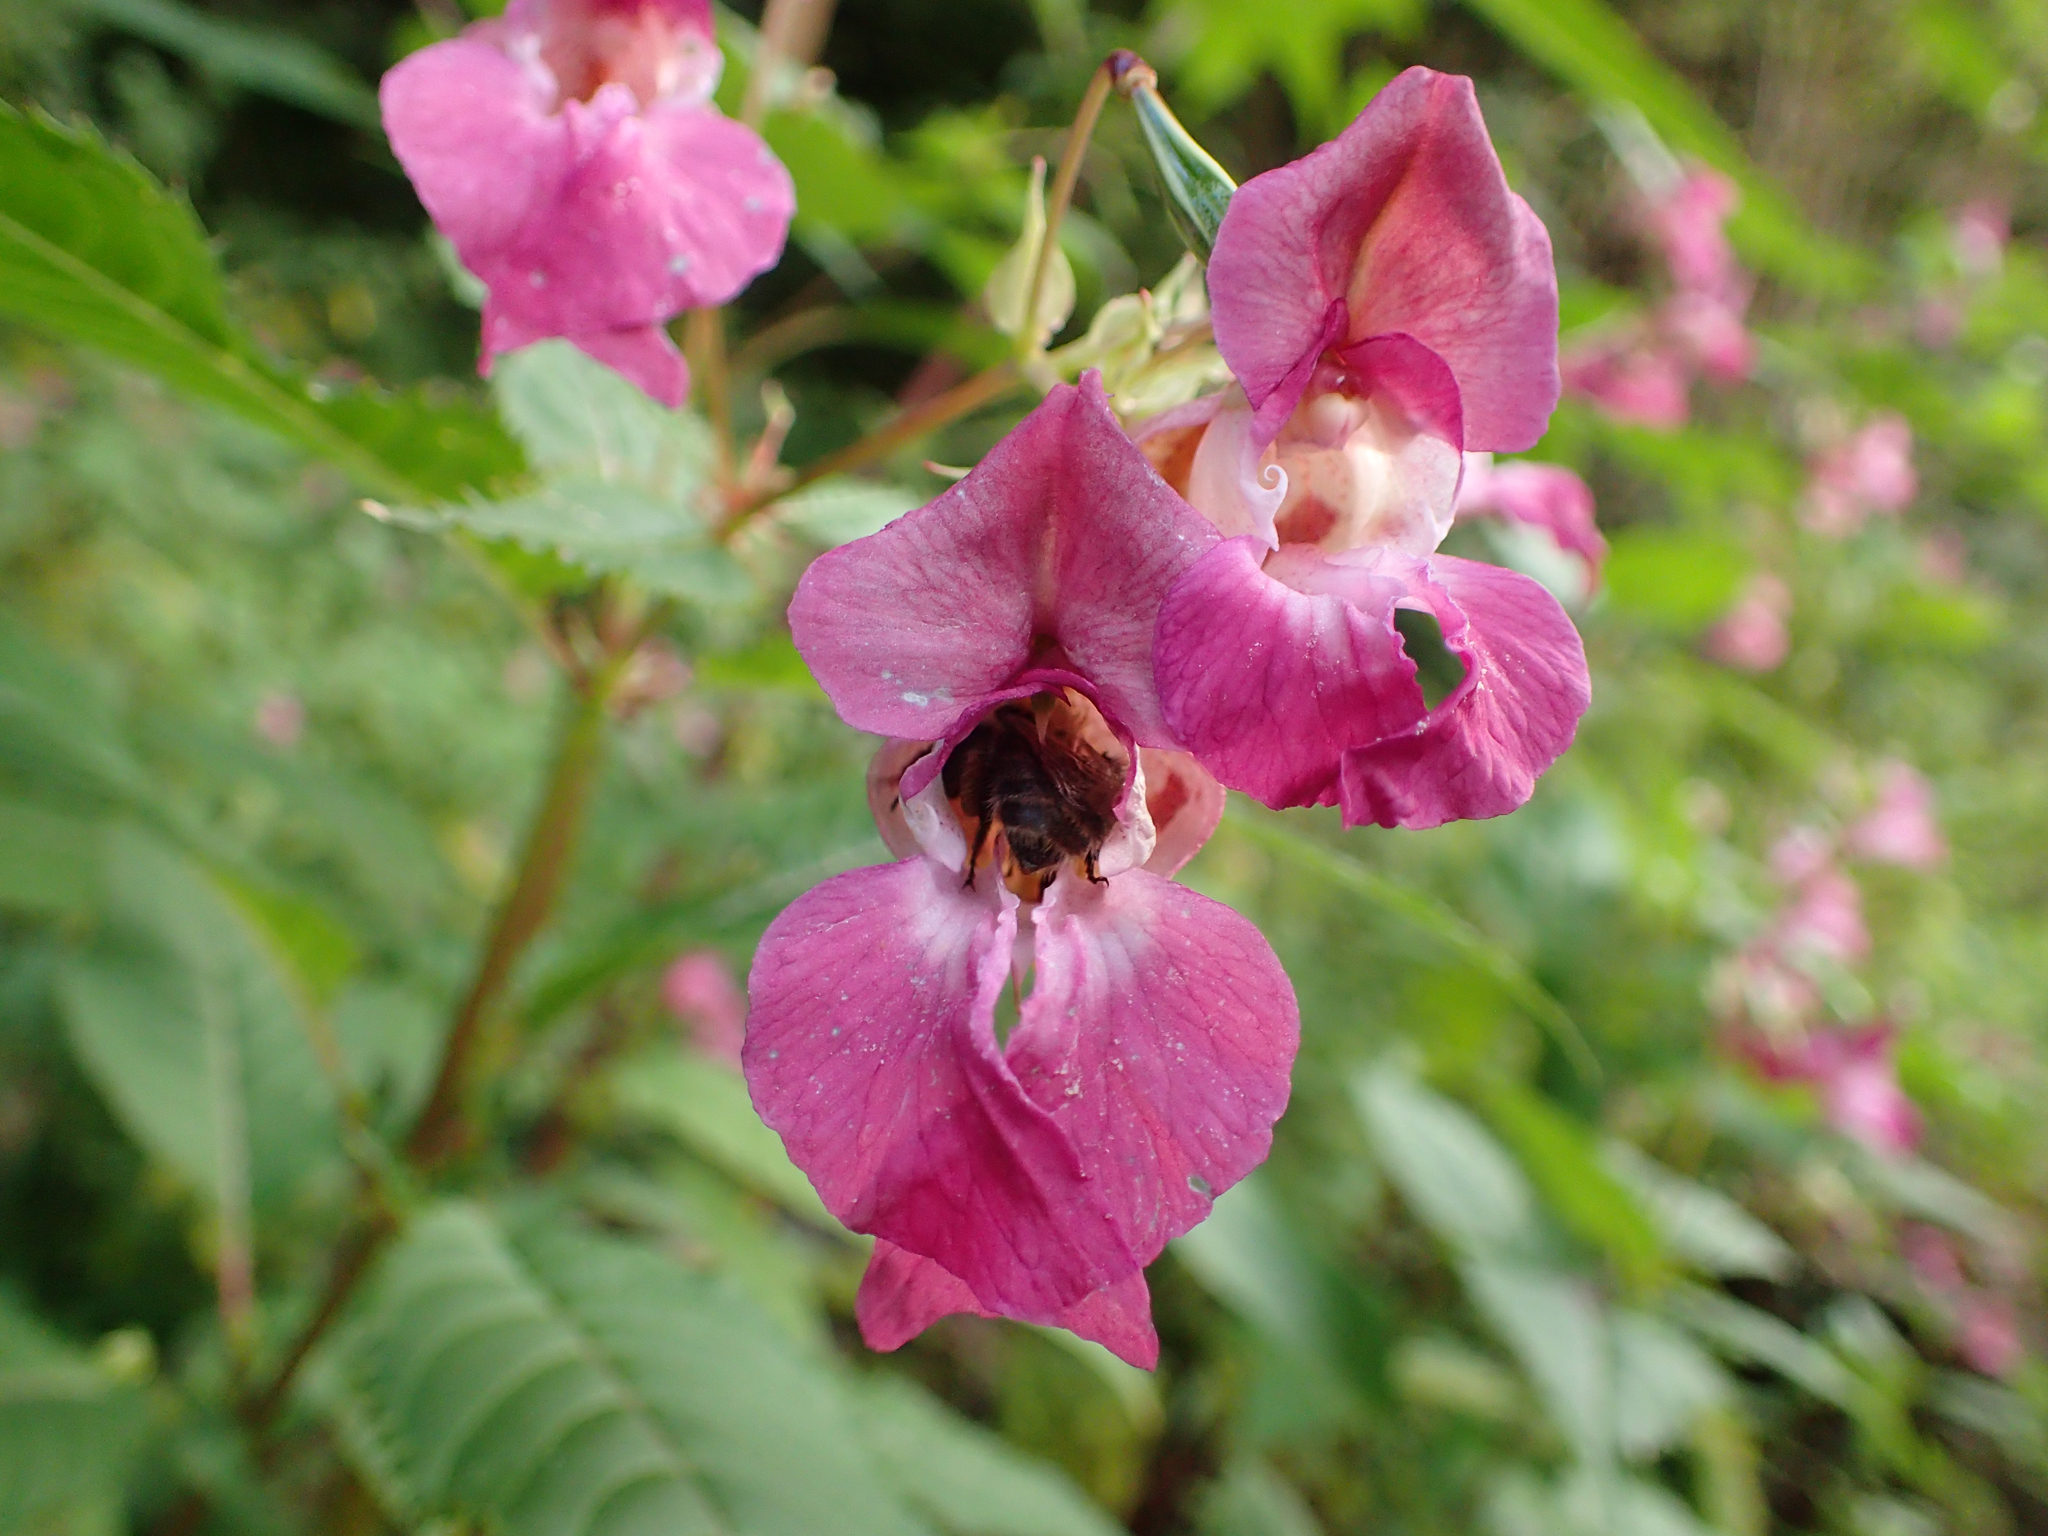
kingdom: Animalia
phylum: Arthropoda
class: Insecta
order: Hymenoptera
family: Apidae
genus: Bombus
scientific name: Bombus pascuorum
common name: Common carder bee
